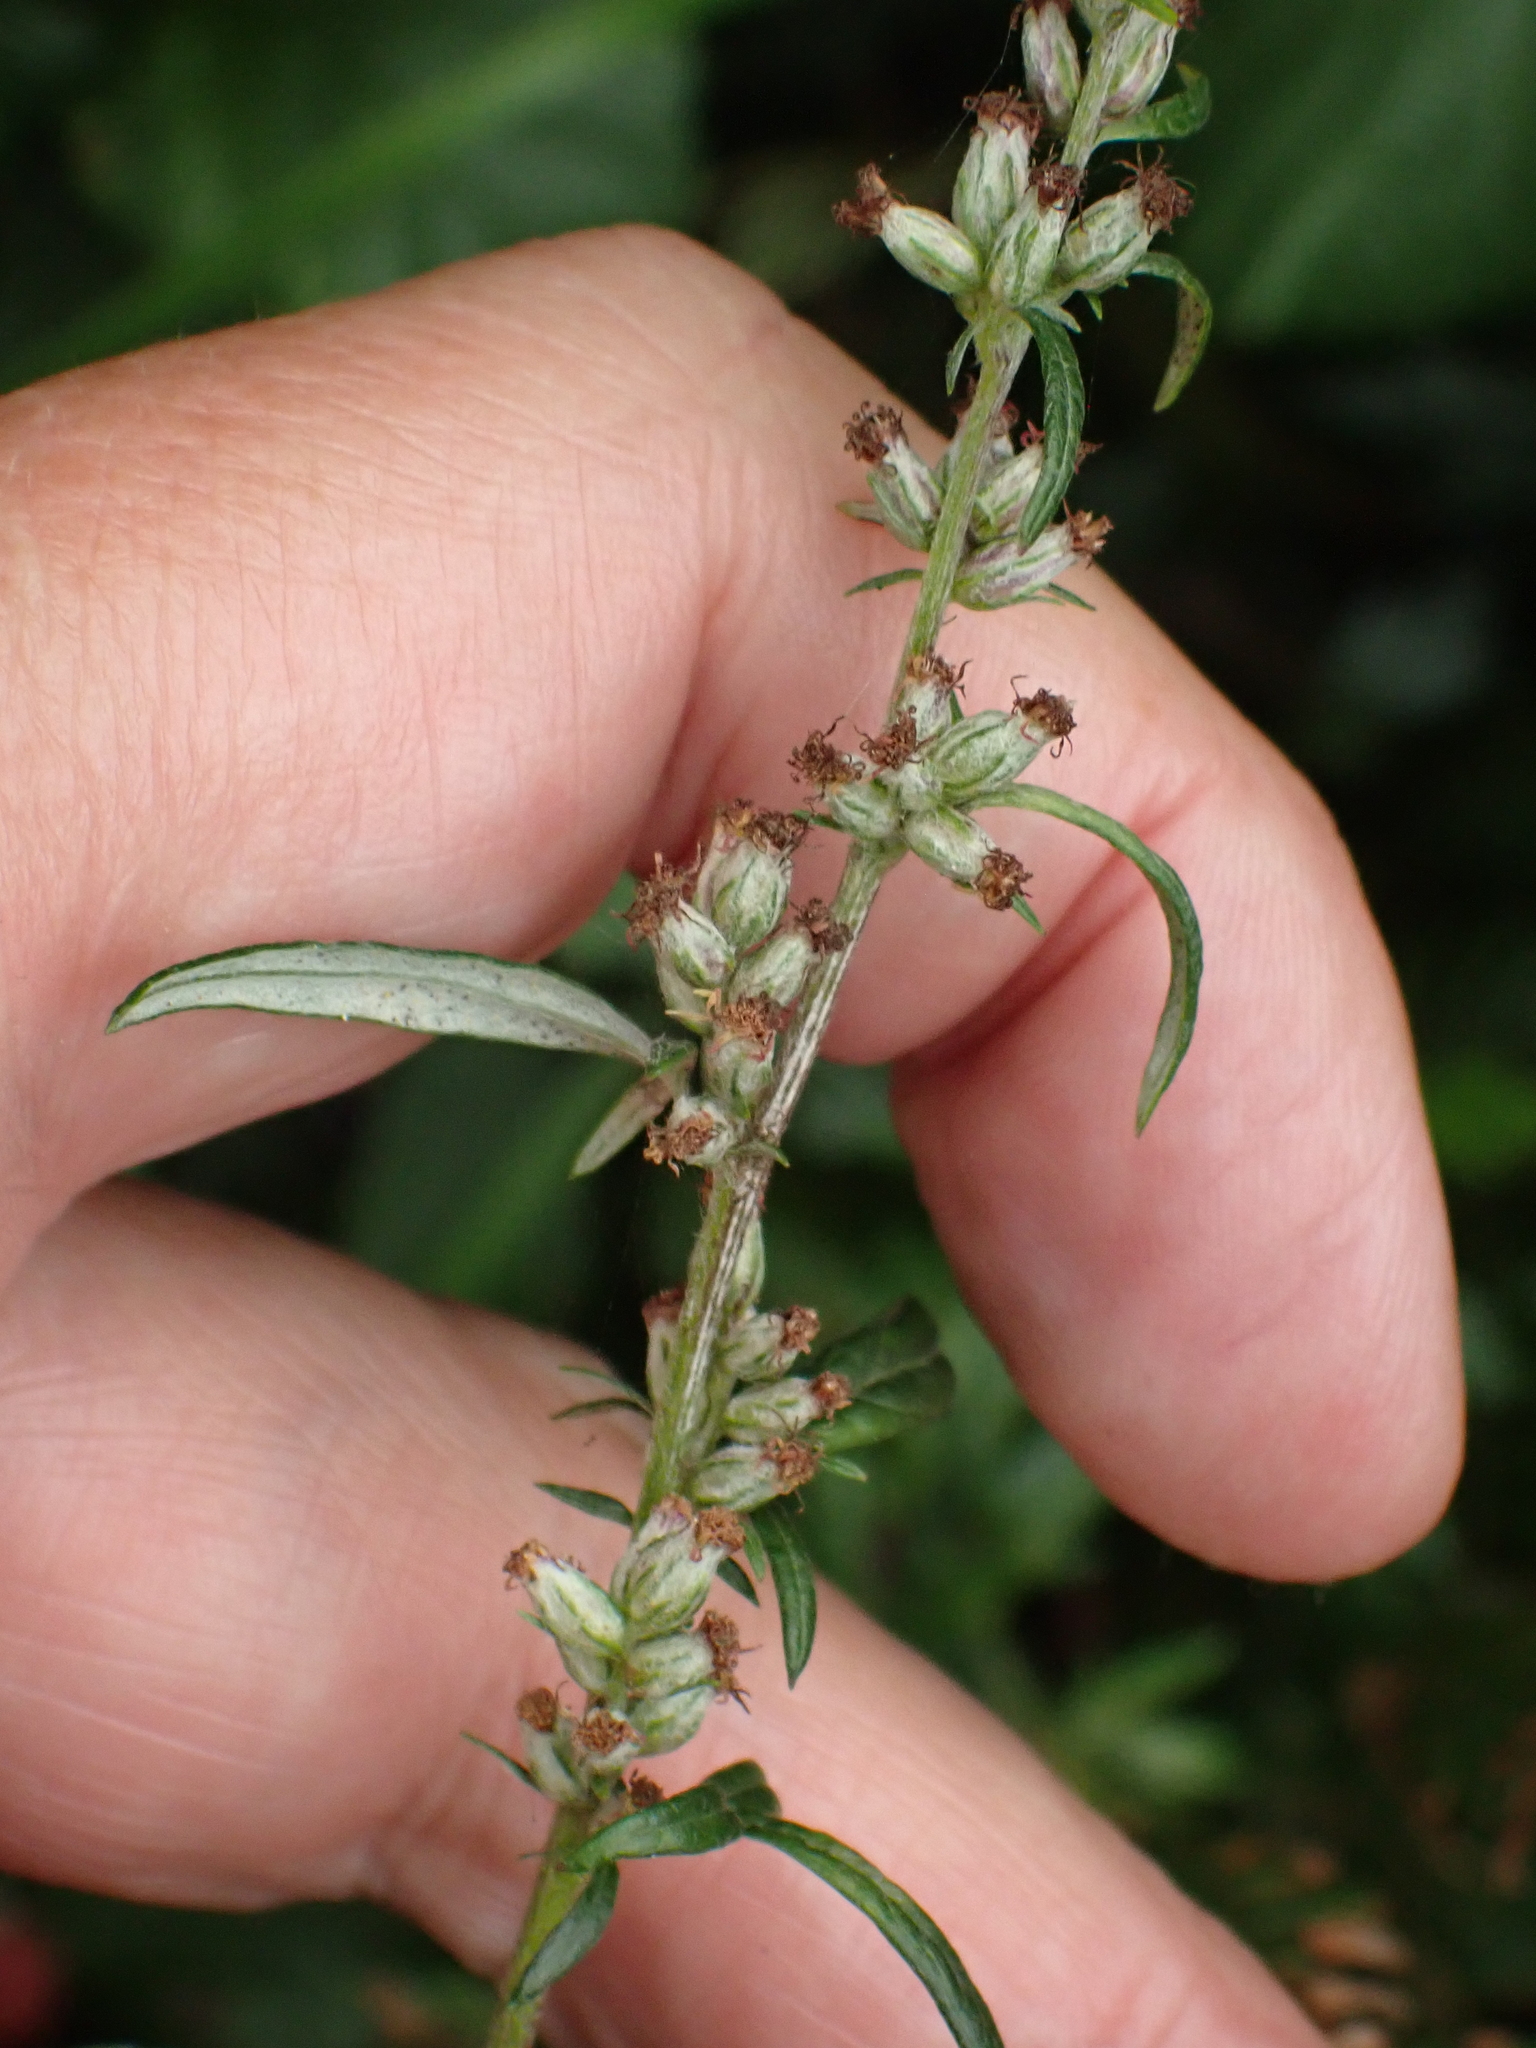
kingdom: Plantae
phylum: Tracheophyta
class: Magnoliopsida
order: Asterales
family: Asteraceae
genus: Artemisia
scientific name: Artemisia vulgaris
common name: Mugwort
